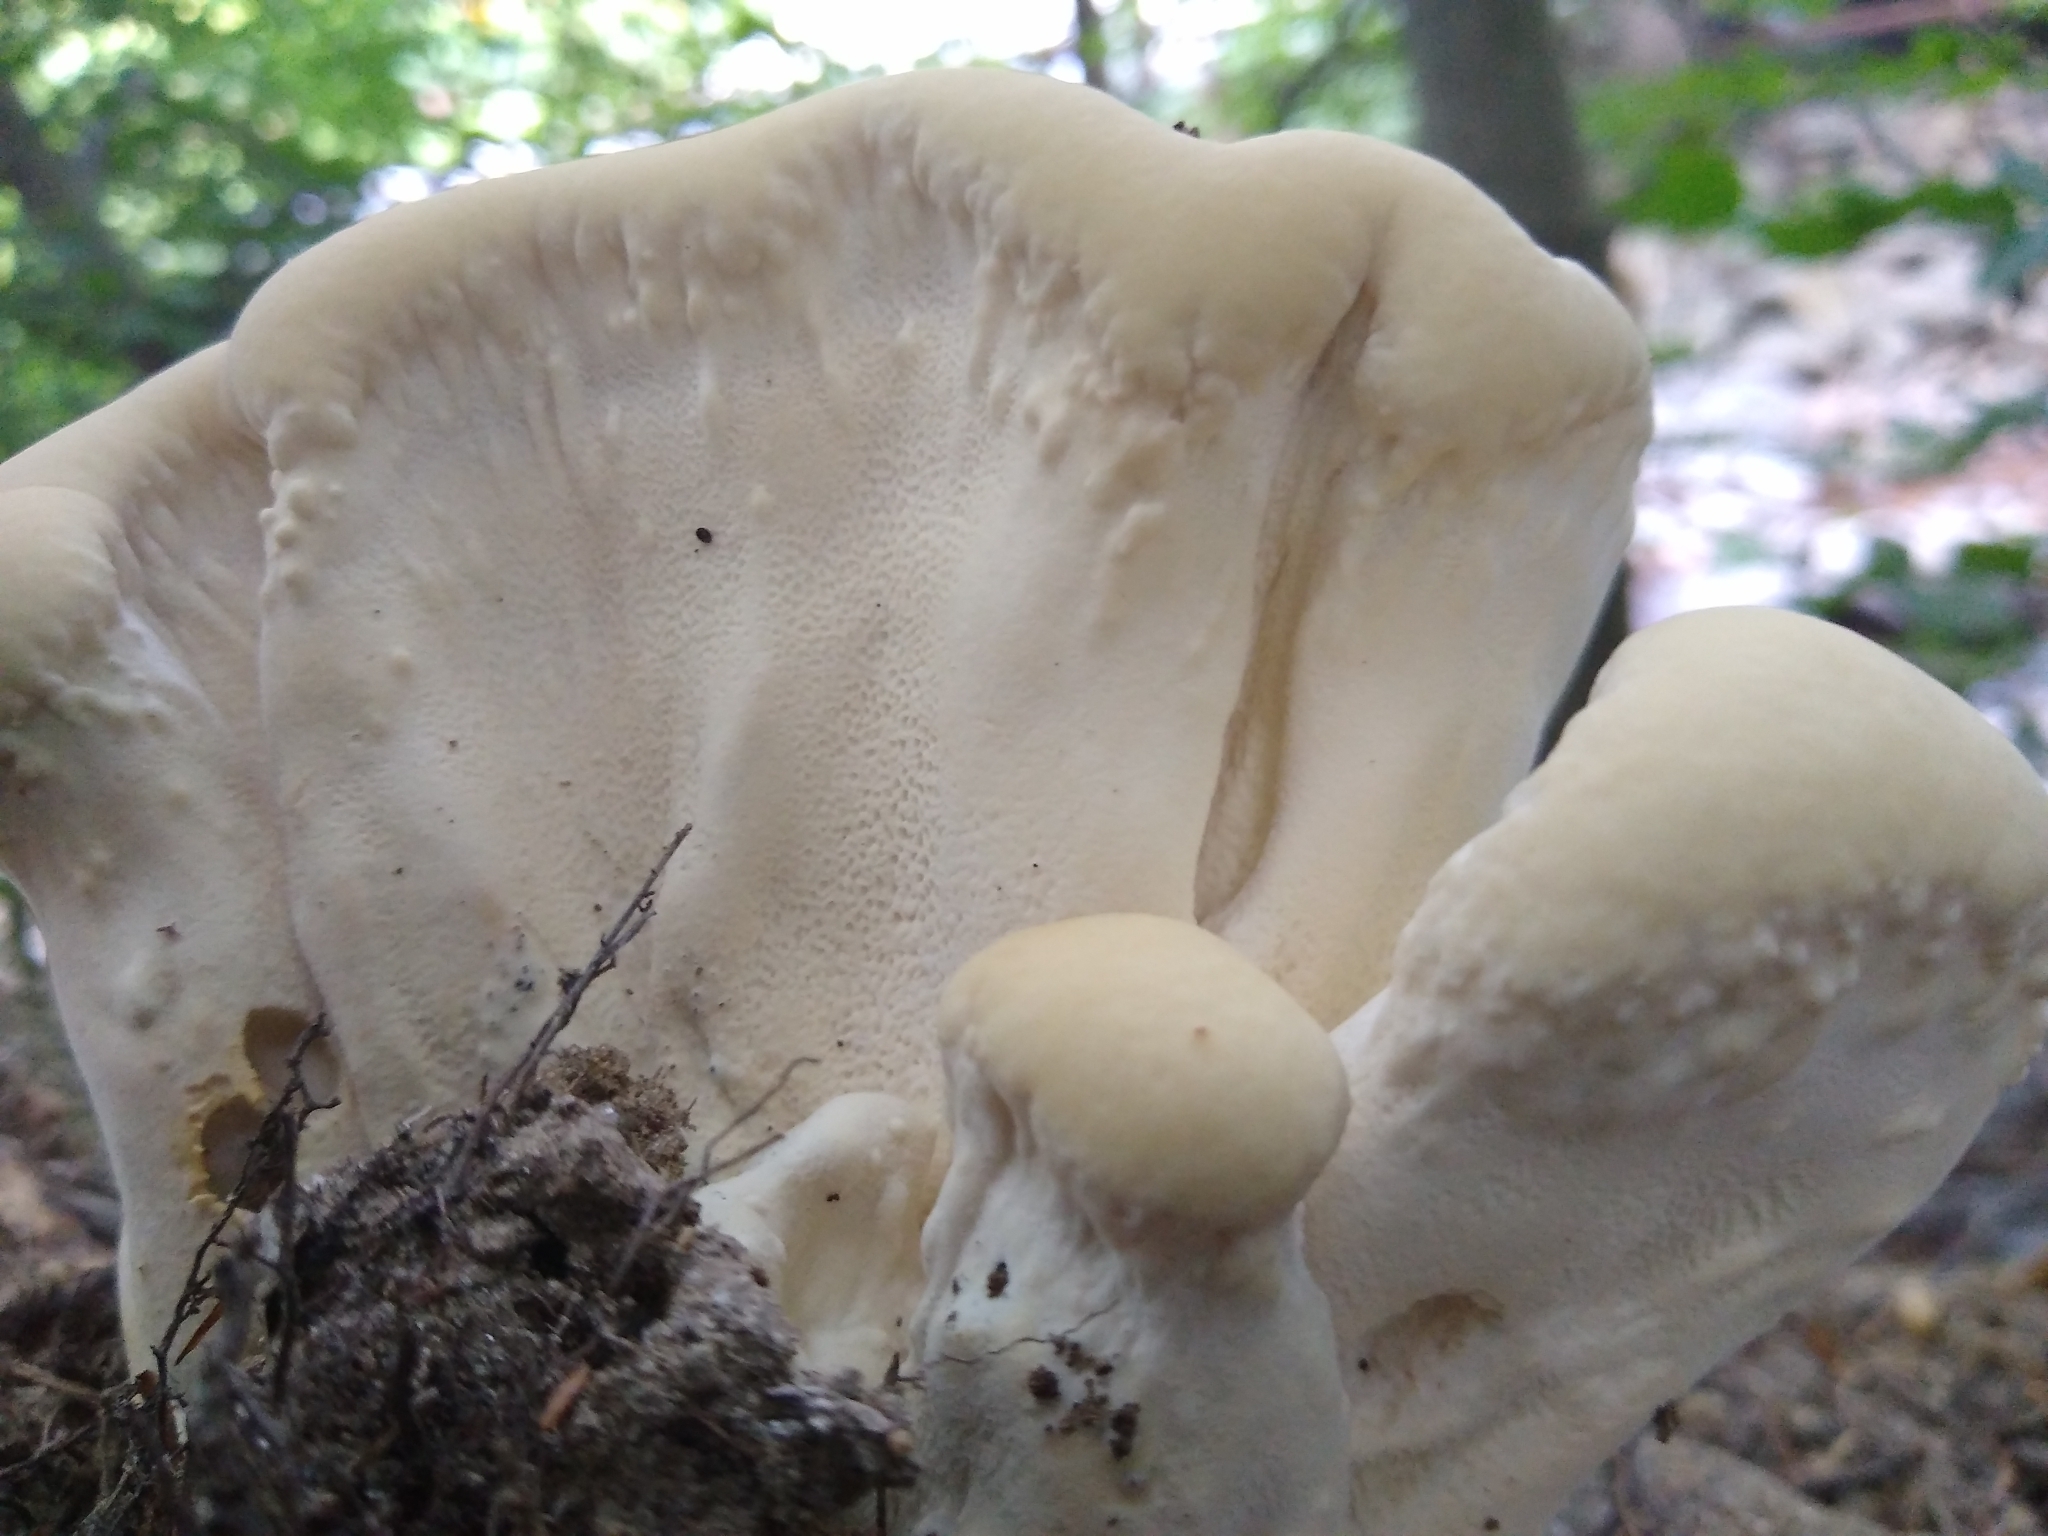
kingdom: Fungi
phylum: Basidiomycota
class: Agaricomycetes
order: Russulales
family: Bondarzewiaceae
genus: Bondarzewia
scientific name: Bondarzewia berkeleyi
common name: Berkeley's polypore
